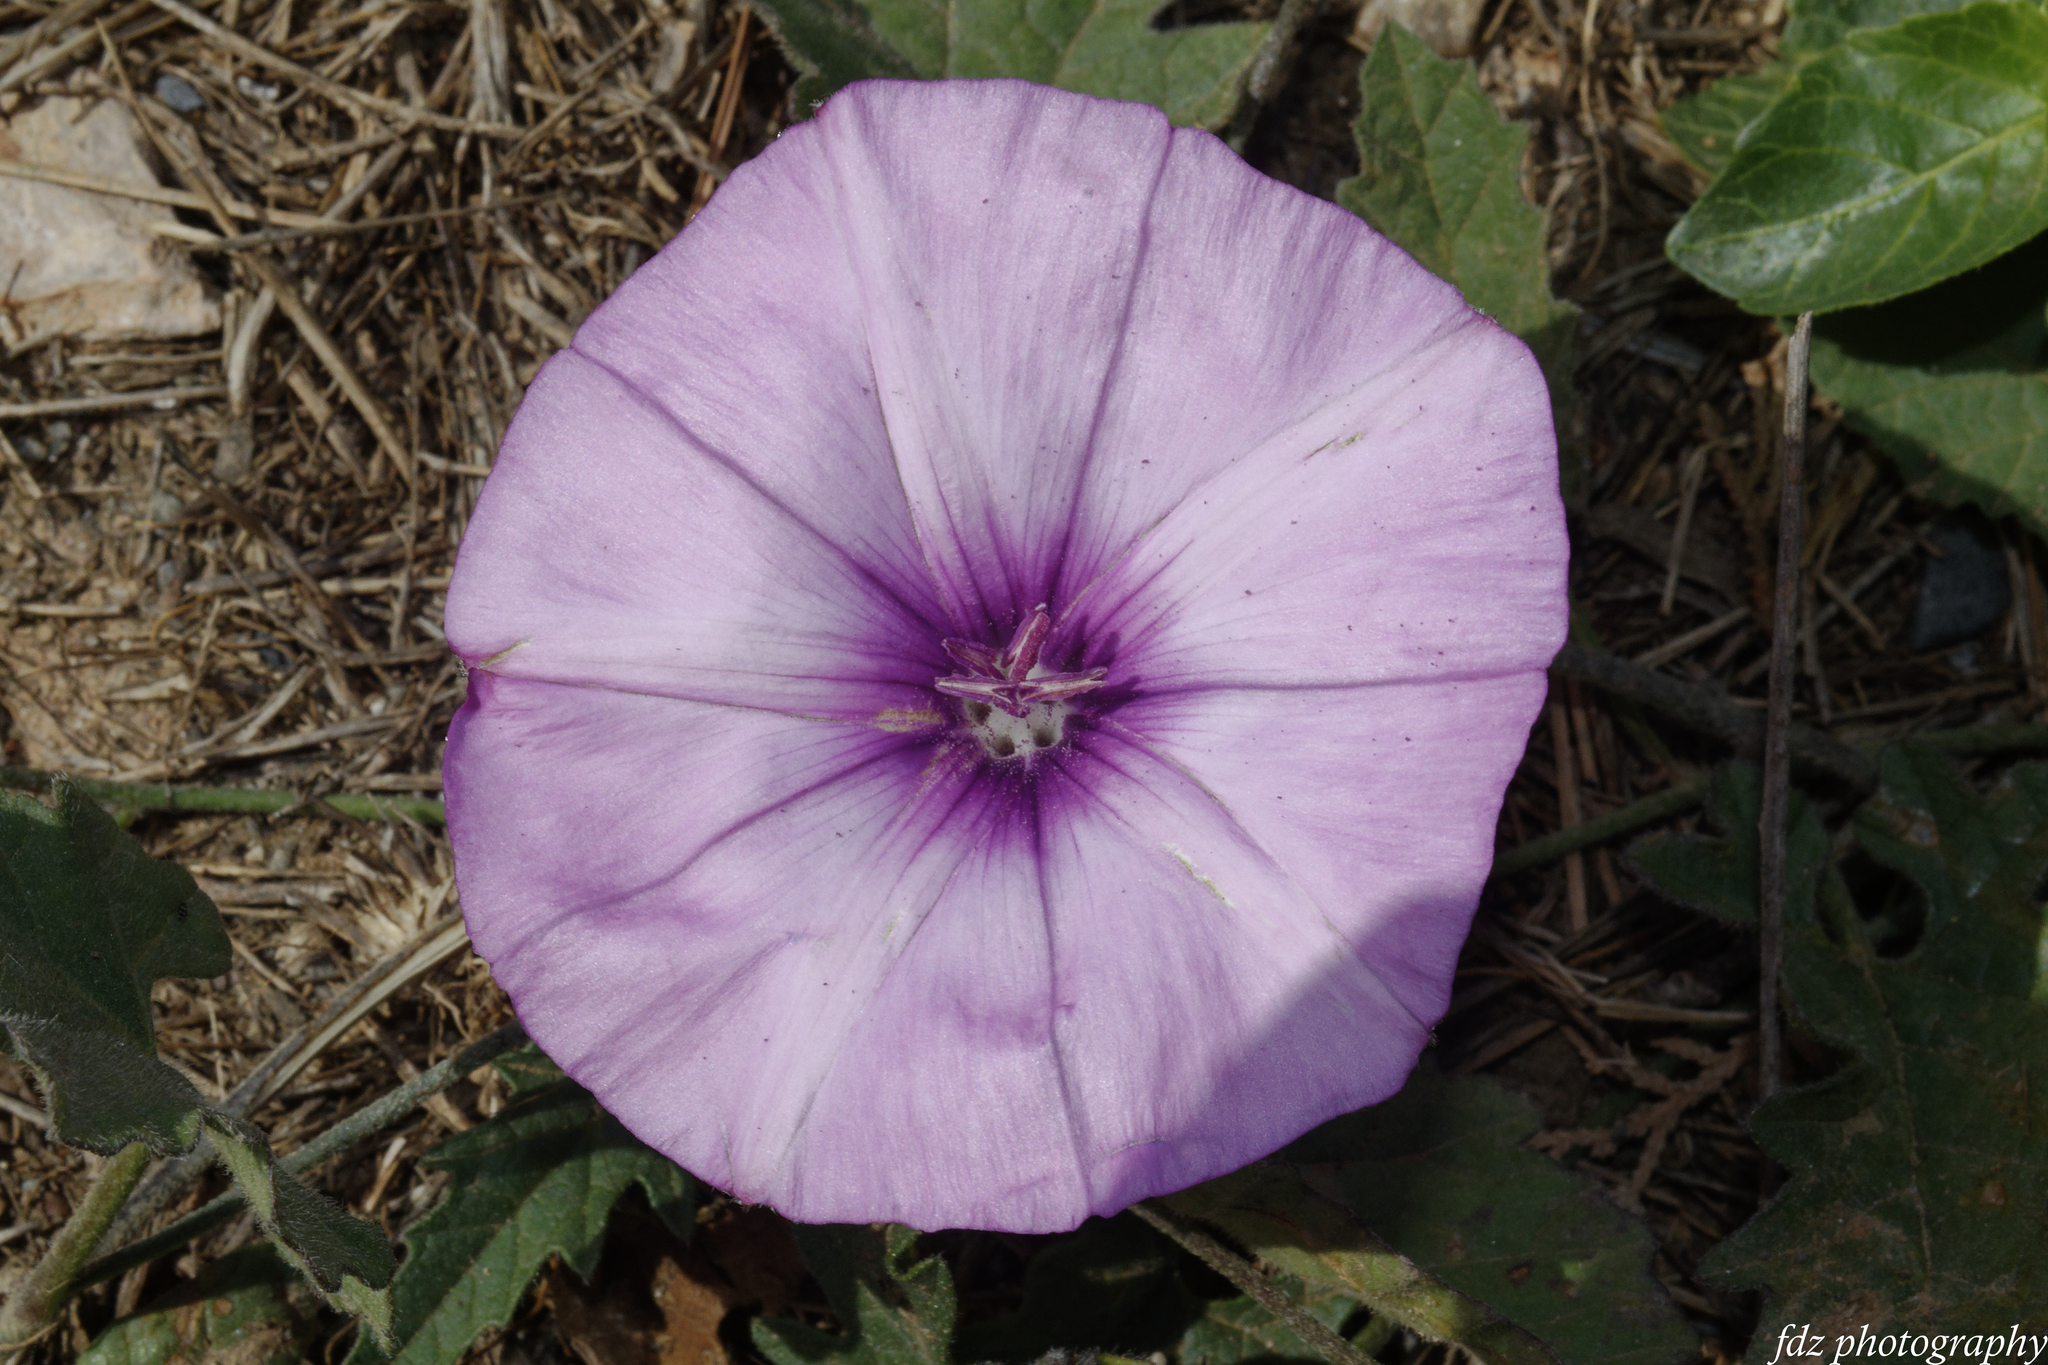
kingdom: Plantae
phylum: Tracheophyta
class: Magnoliopsida
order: Solanales
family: Convolvulaceae
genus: Convolvulus
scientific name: Convolvulus althaeoides
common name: Mallow bindweed
